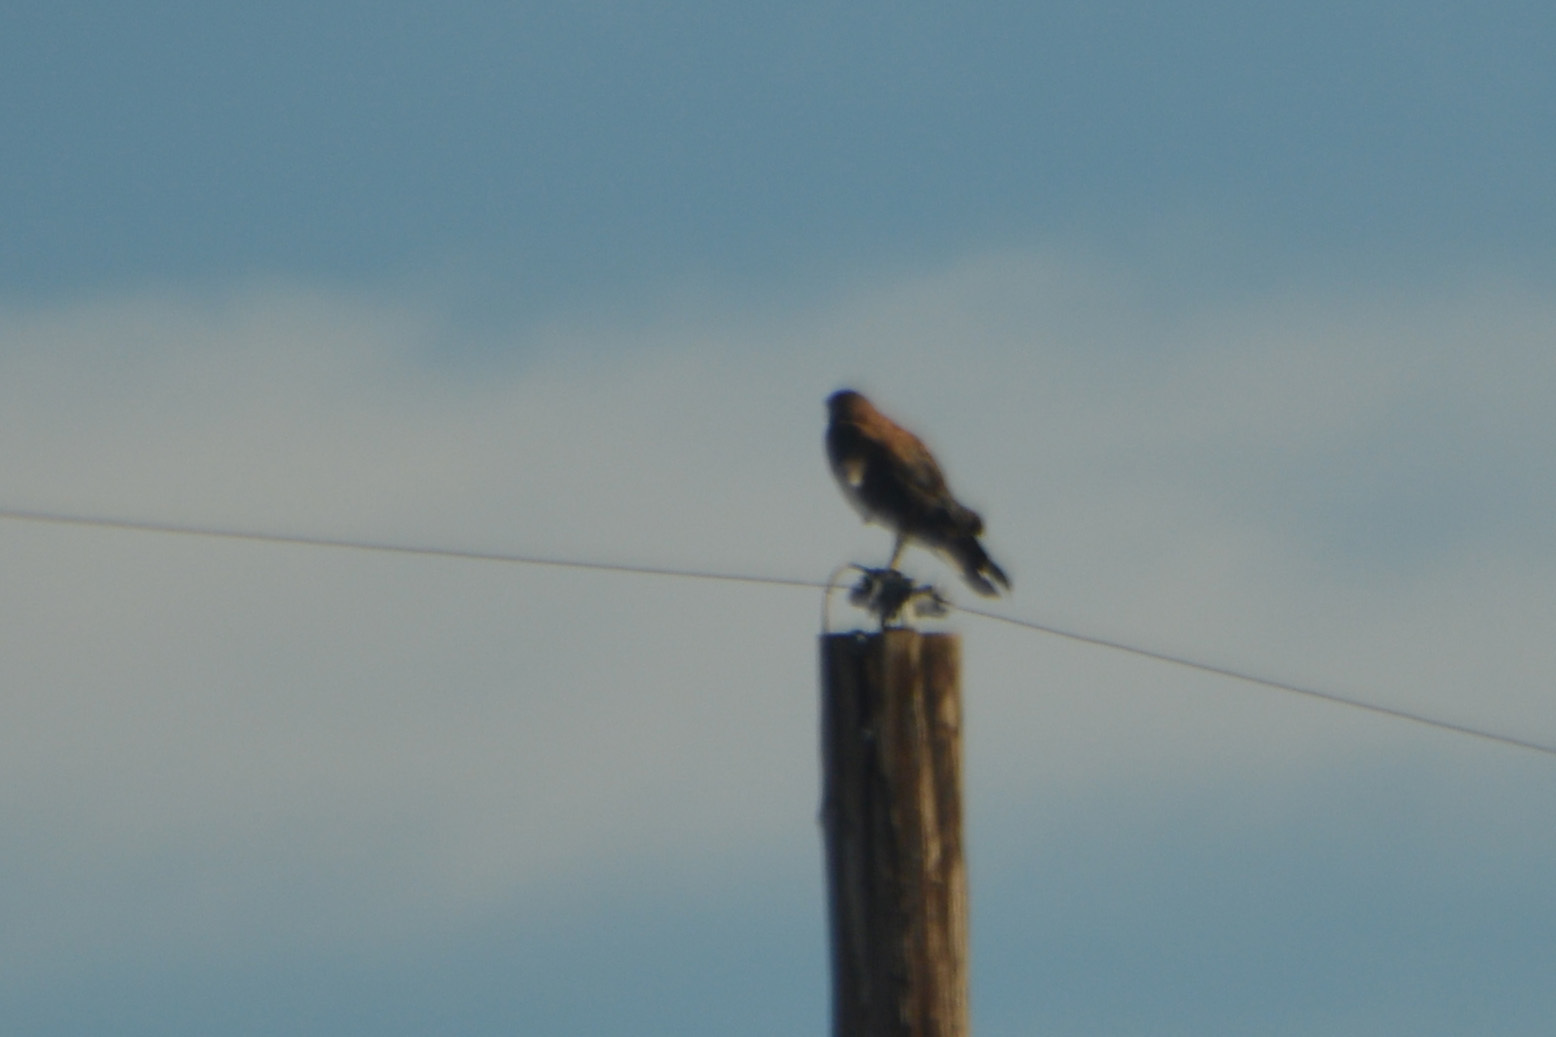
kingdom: Animalia
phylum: Chordata
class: Aves
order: Accipitriformes
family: Accipitridae
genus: Buteo
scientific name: Buteo polyosoma
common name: Variable hawk
